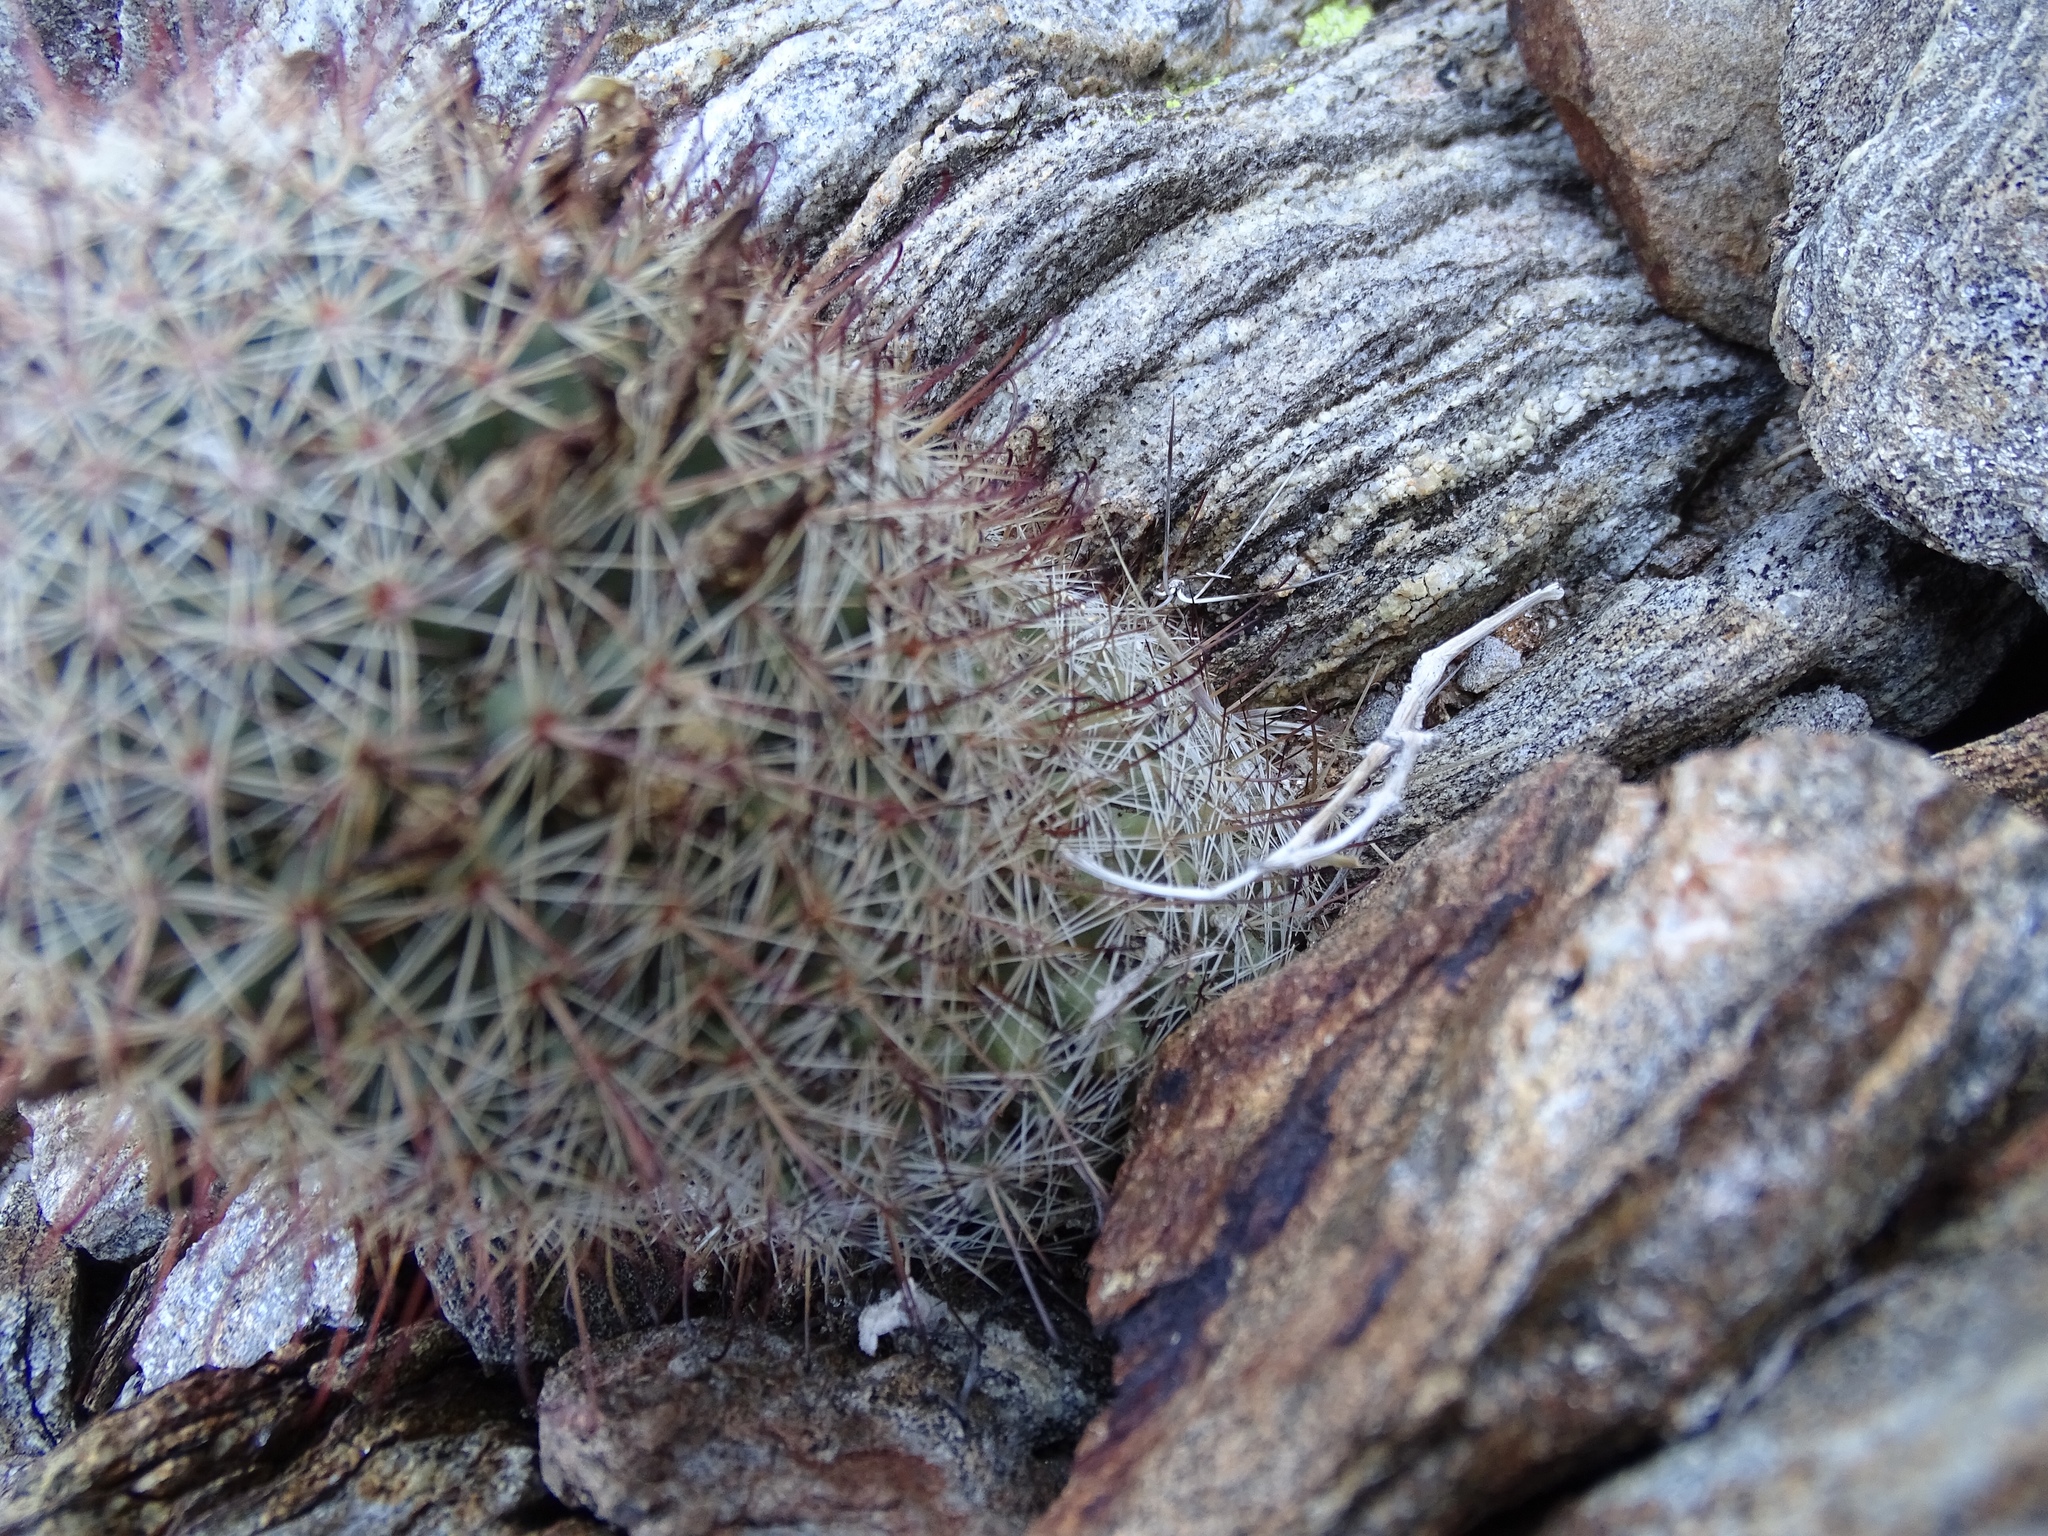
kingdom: Plantae
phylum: Tracheophyta
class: Magnoliopsida
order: Caryophyllales
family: Cactaceae
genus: Cochemiea
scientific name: Cochemiea dioica
